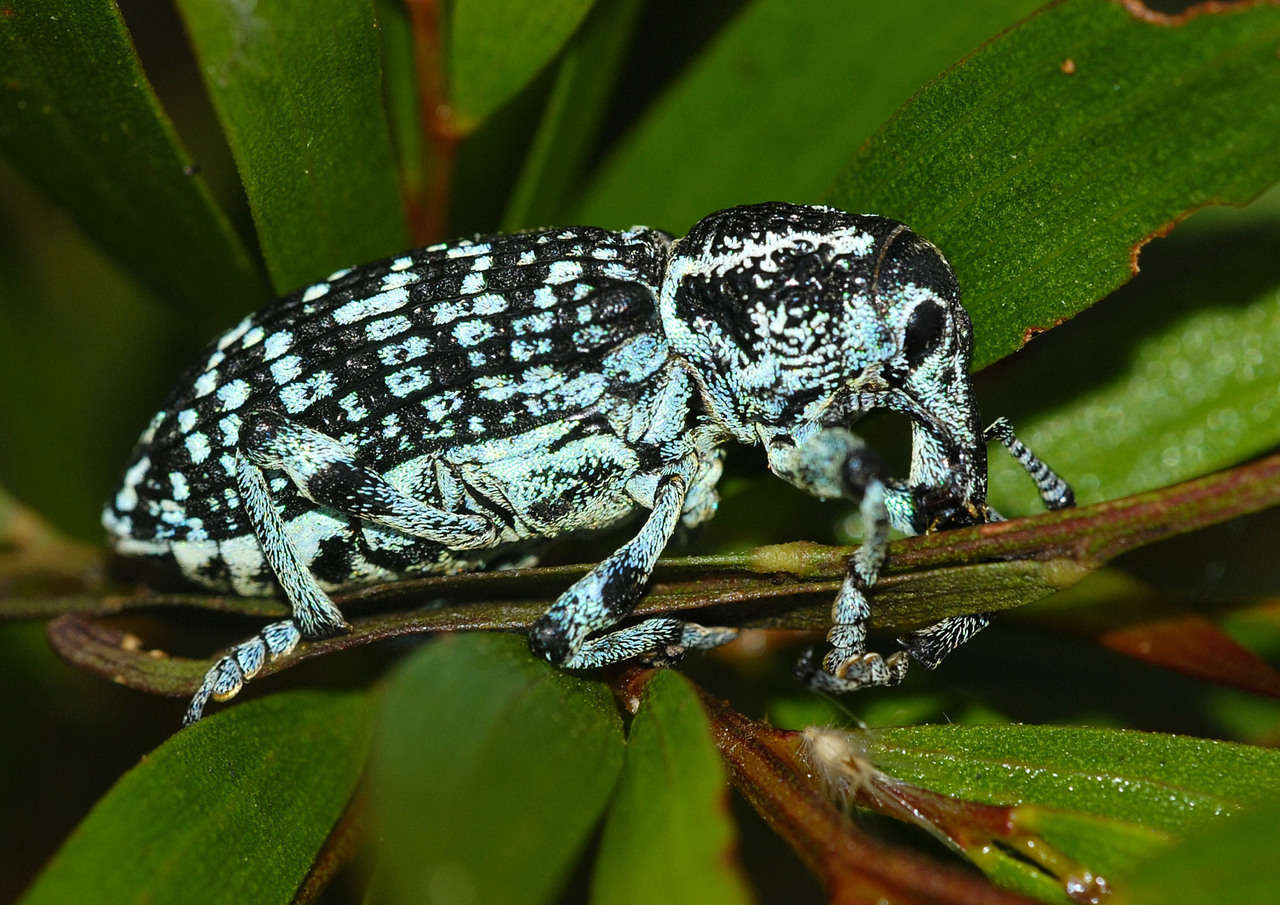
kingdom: Animalia
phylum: Arthropoda
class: Insecta
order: Coleoptera
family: Curculionidae
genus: Chrysolopus
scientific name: Chrysolopus spectabilis
